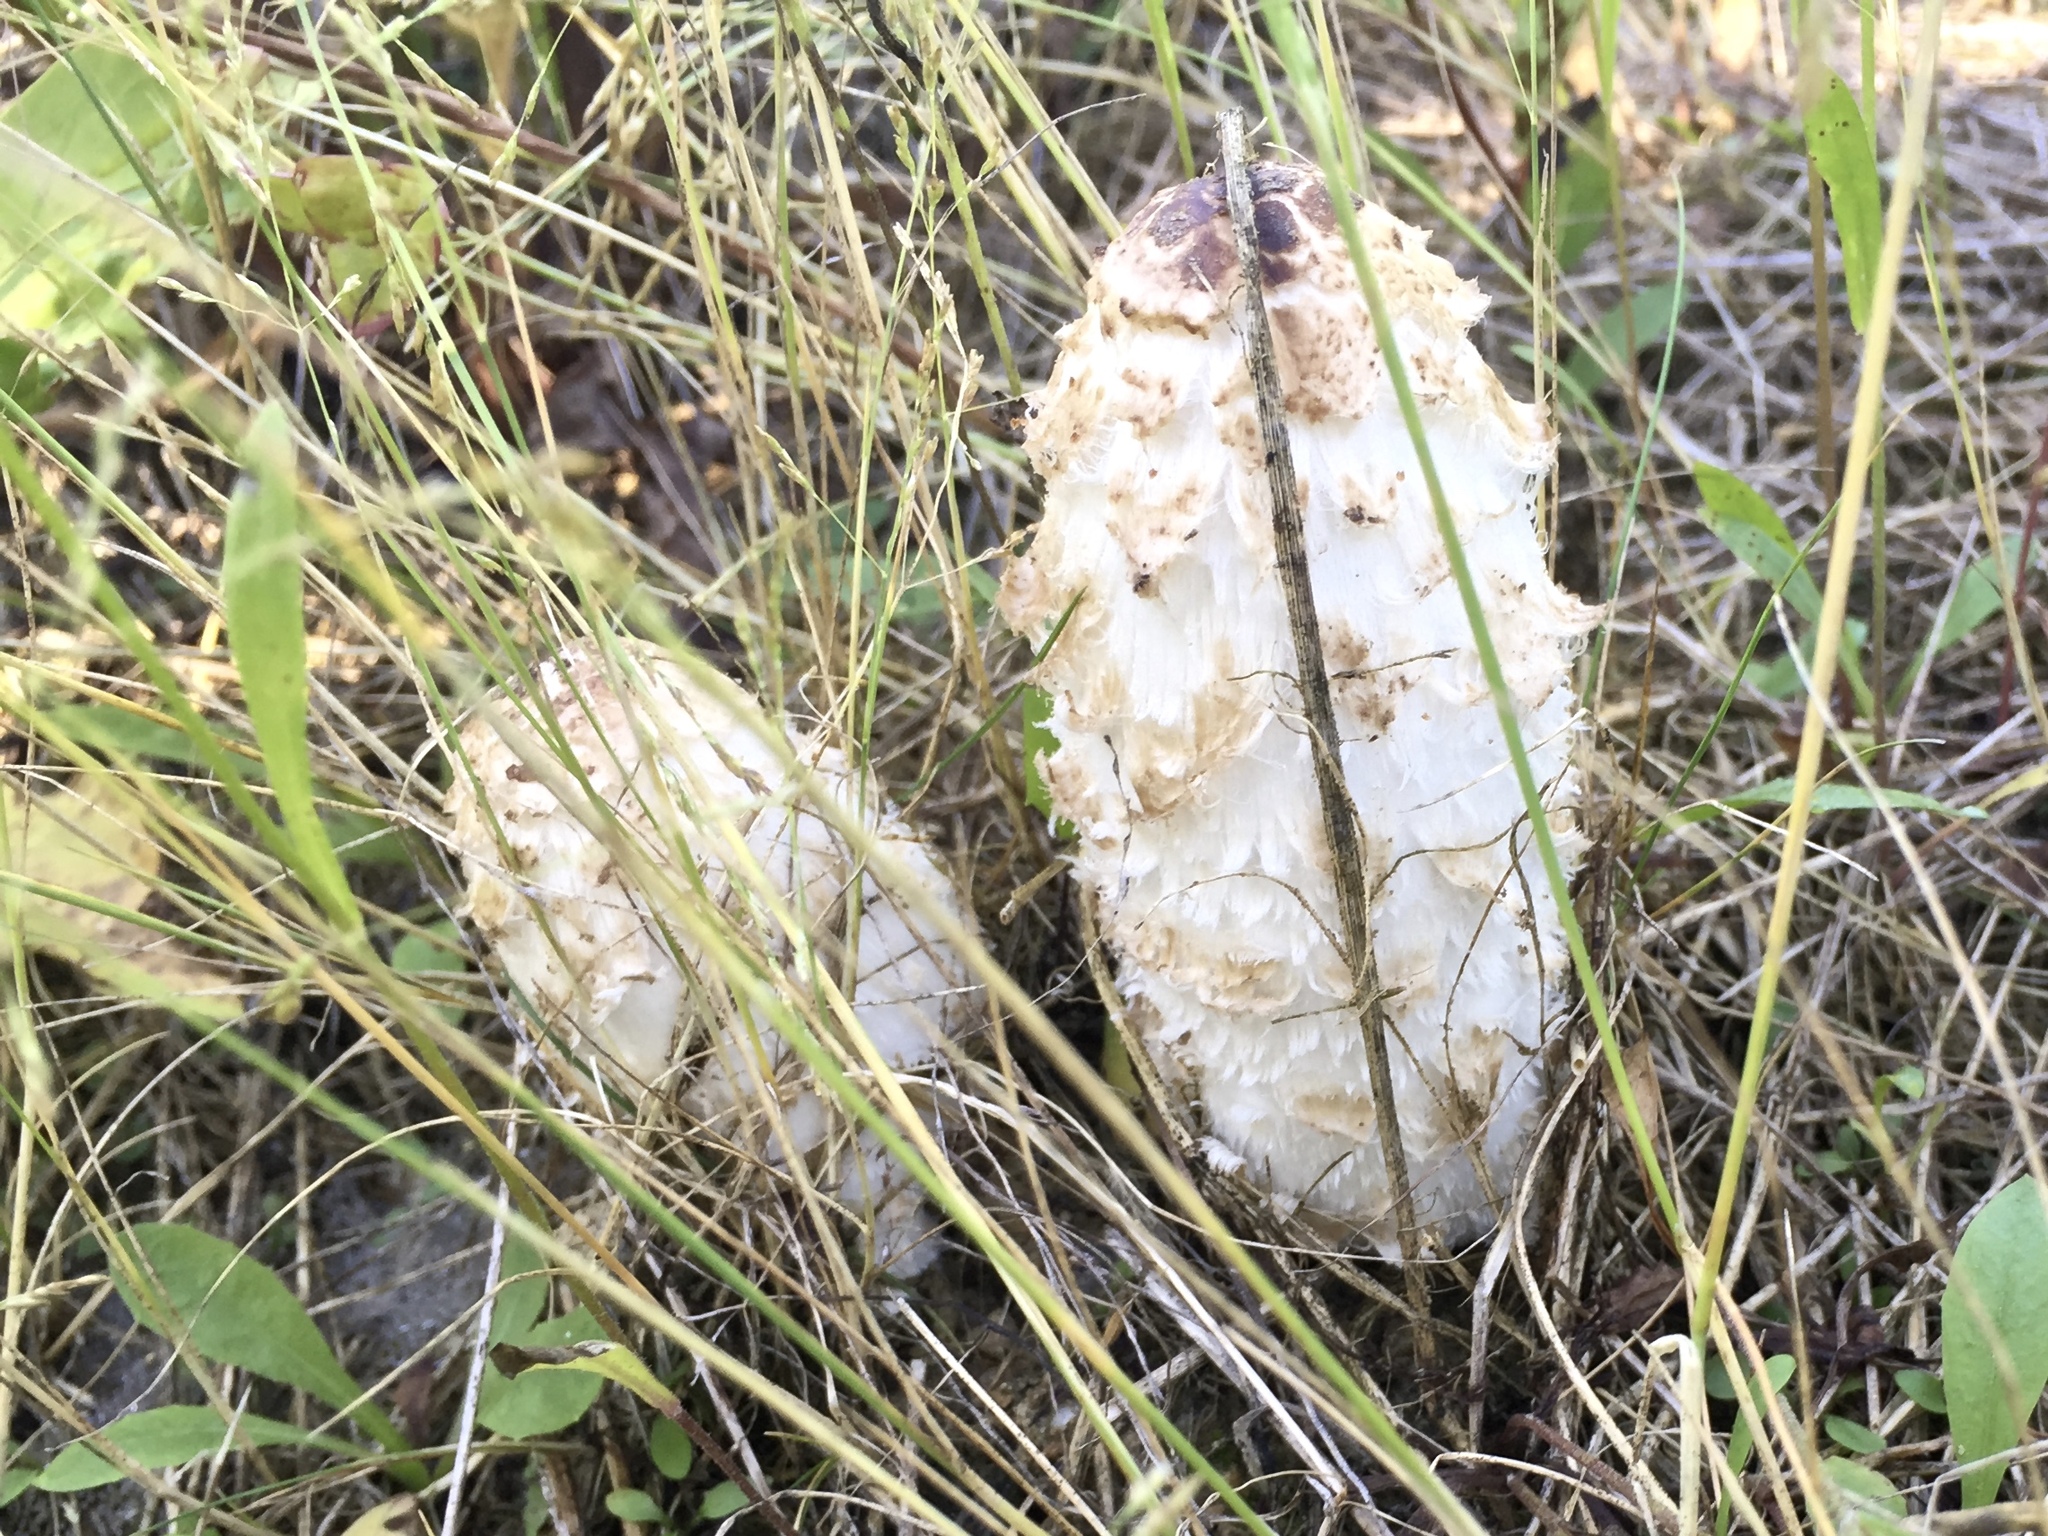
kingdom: Fungi
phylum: Basidiomycota
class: Agaricomycetes
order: Agaricales
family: Agaricaceae
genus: Coprinus
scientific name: Coprinus comatus
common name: Lawyer's wig
